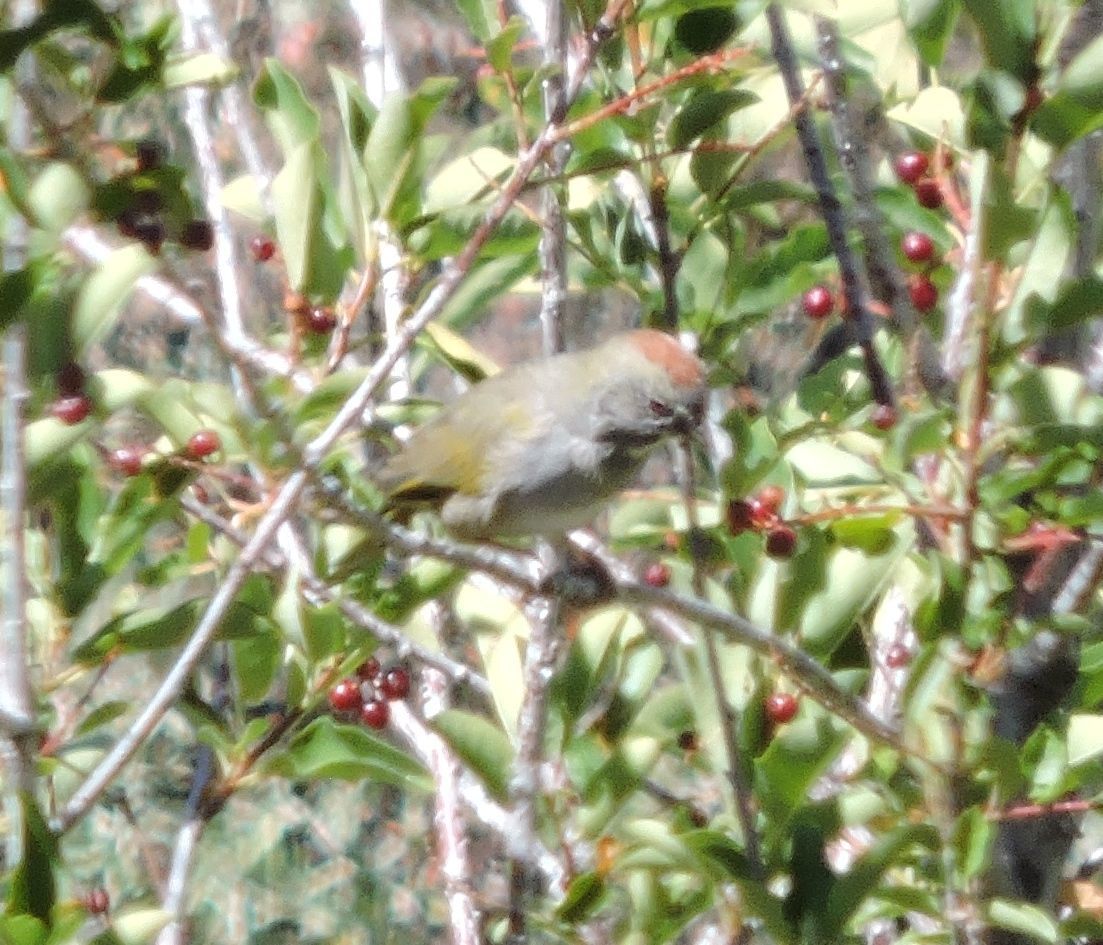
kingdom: Animalia
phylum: Chordata
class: Aves
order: Passeriformes
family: Passerellidae
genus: Pipilo
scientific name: Pipilo chlorurus
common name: Green-tailed towhee
